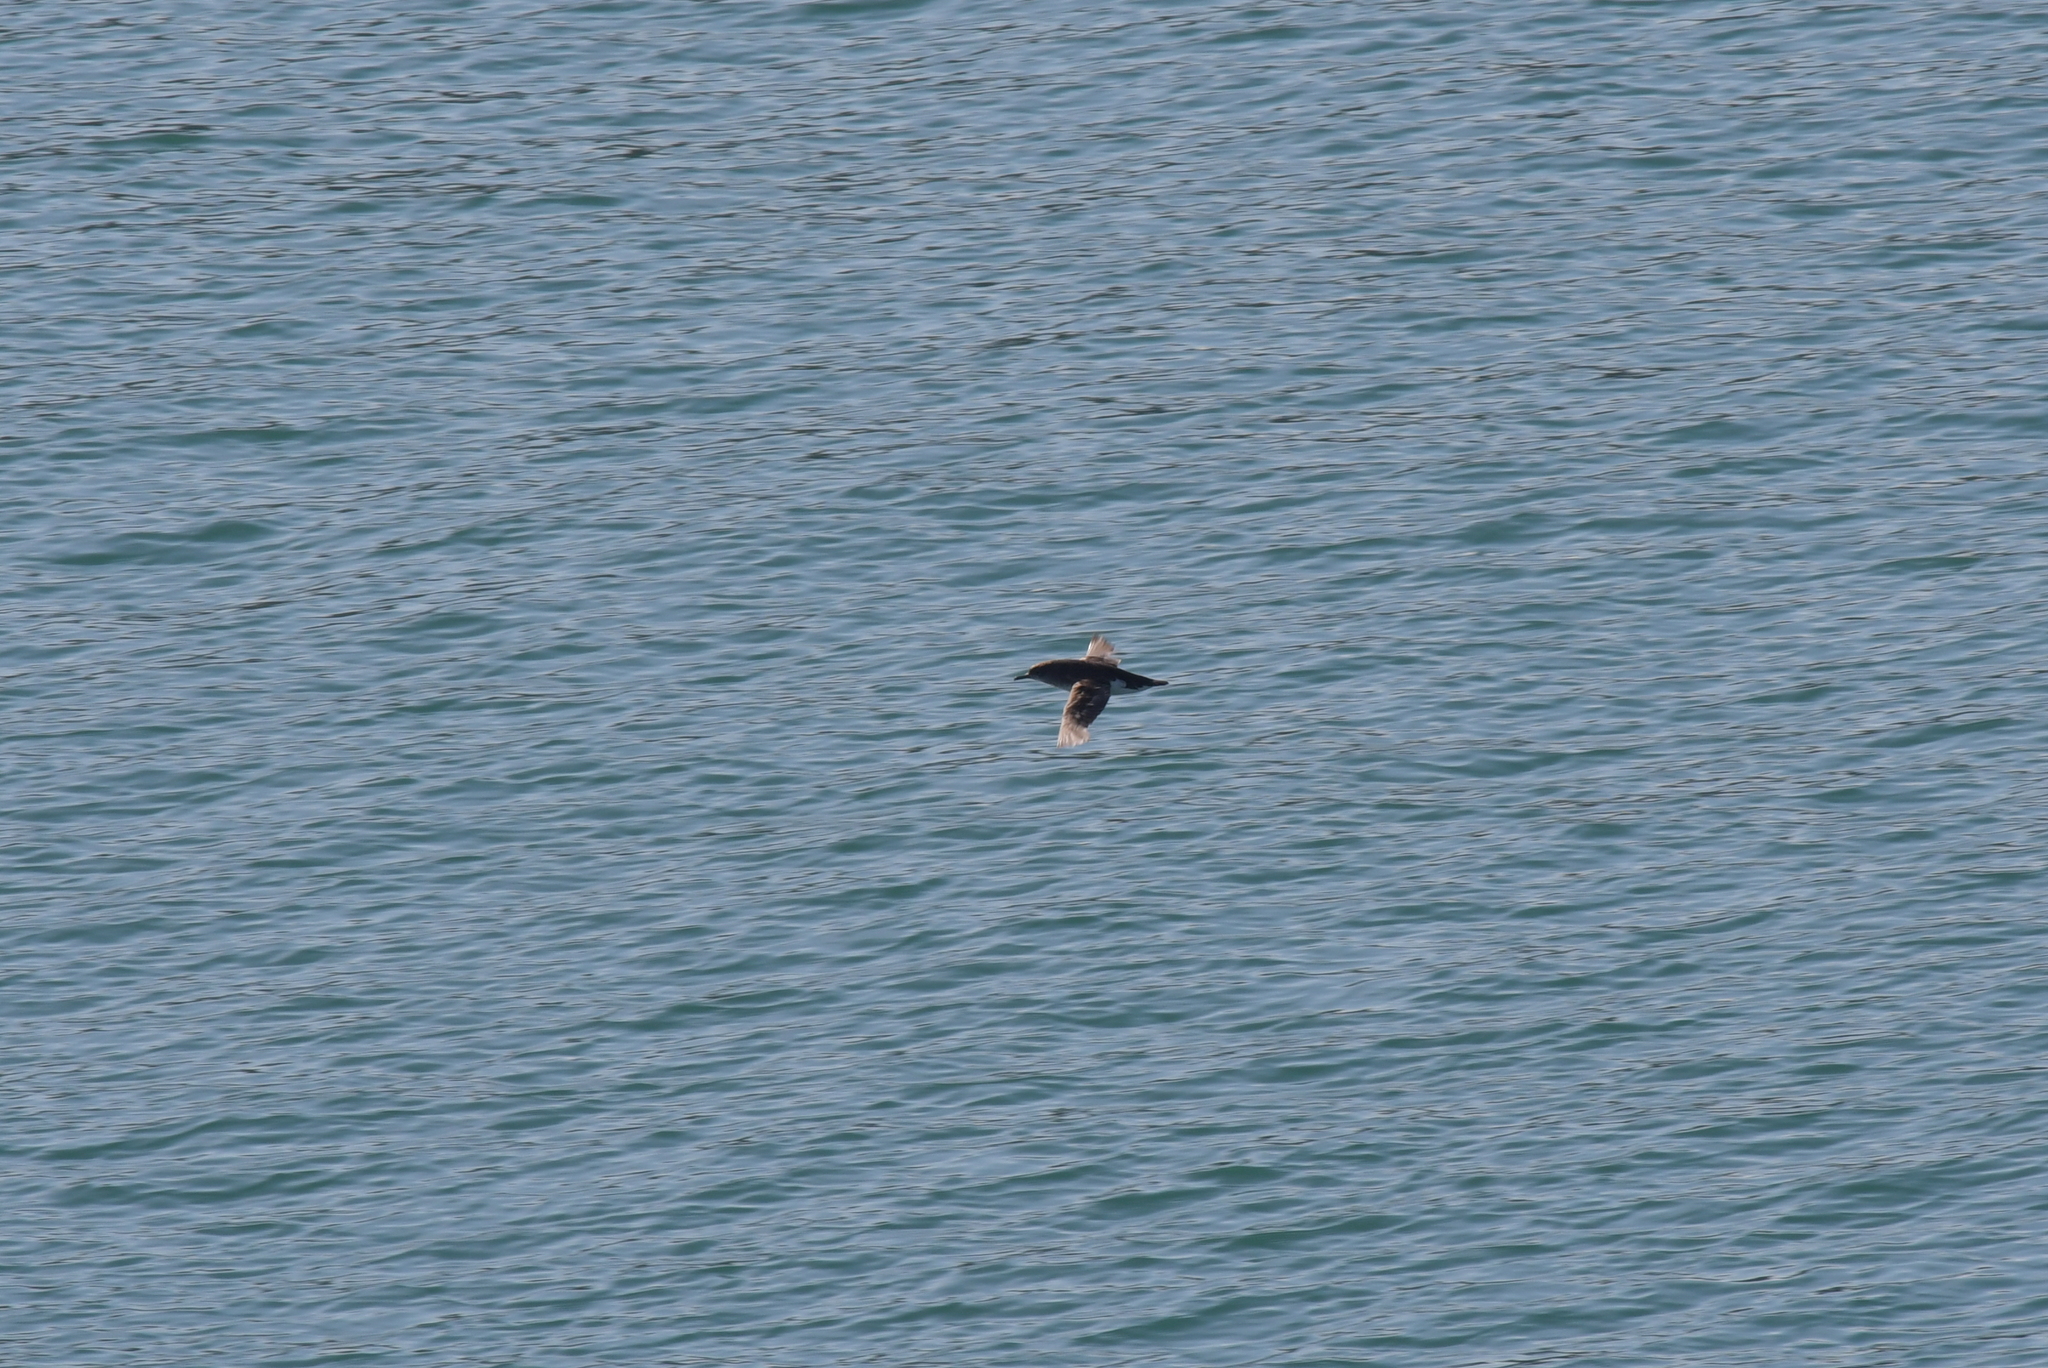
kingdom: Animalia
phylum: Chordata
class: Aves
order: Procellariiformes
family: Procellariidae
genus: Puffinus
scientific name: Puffinus gavia
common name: Fluttering shearwater
